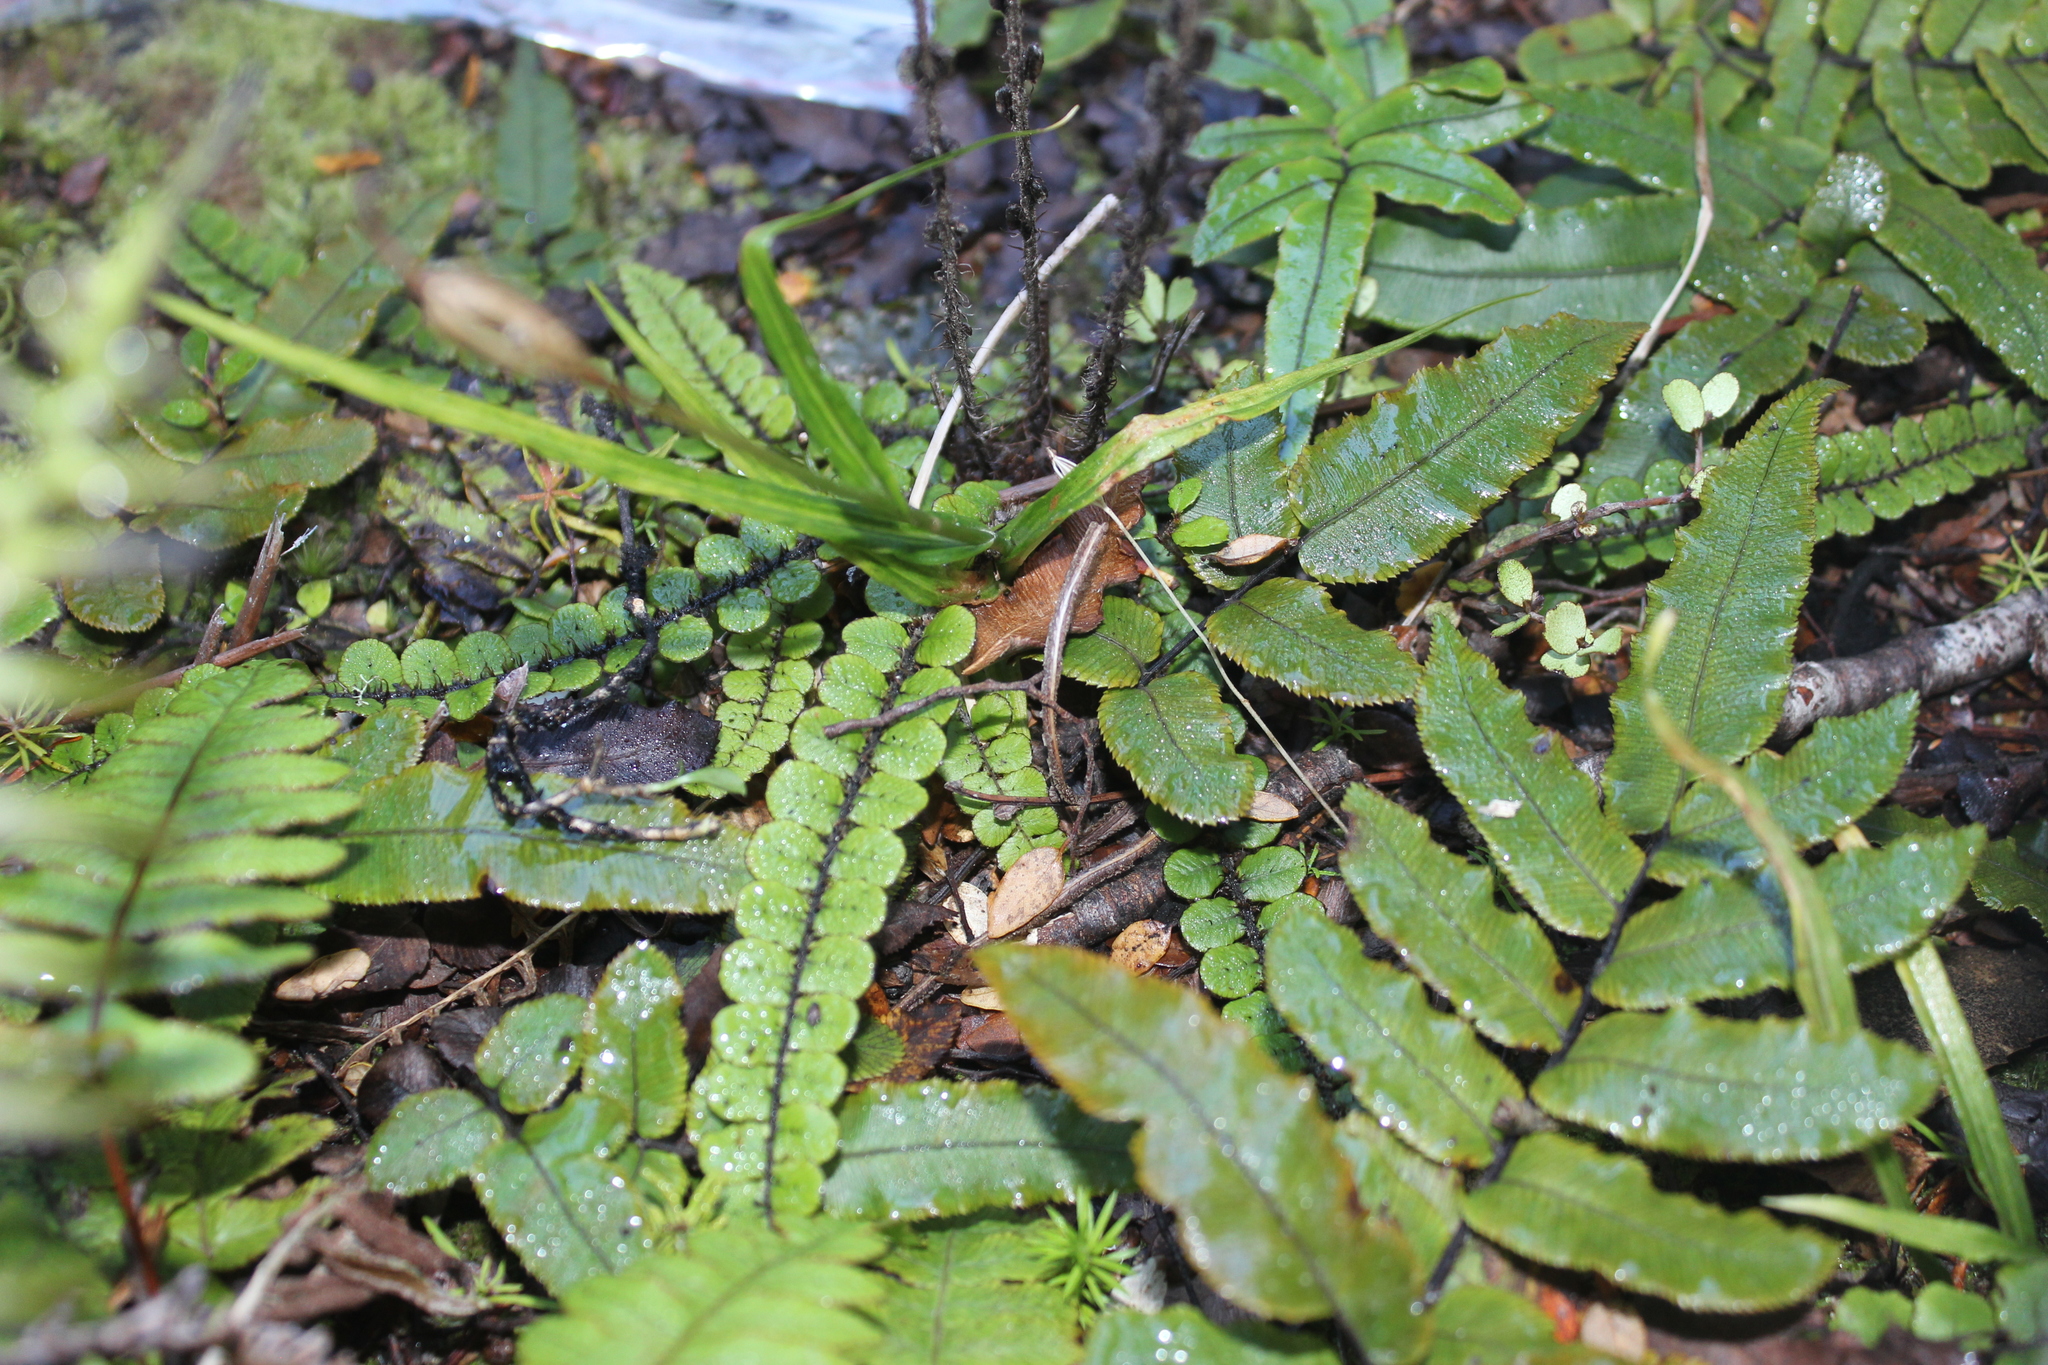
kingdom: Plantae
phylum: Tracheophyta
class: Polypodiopsida
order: Polypodiales
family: Blechnaceae
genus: Cranfillia
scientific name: Cranfillia fluviatilis
